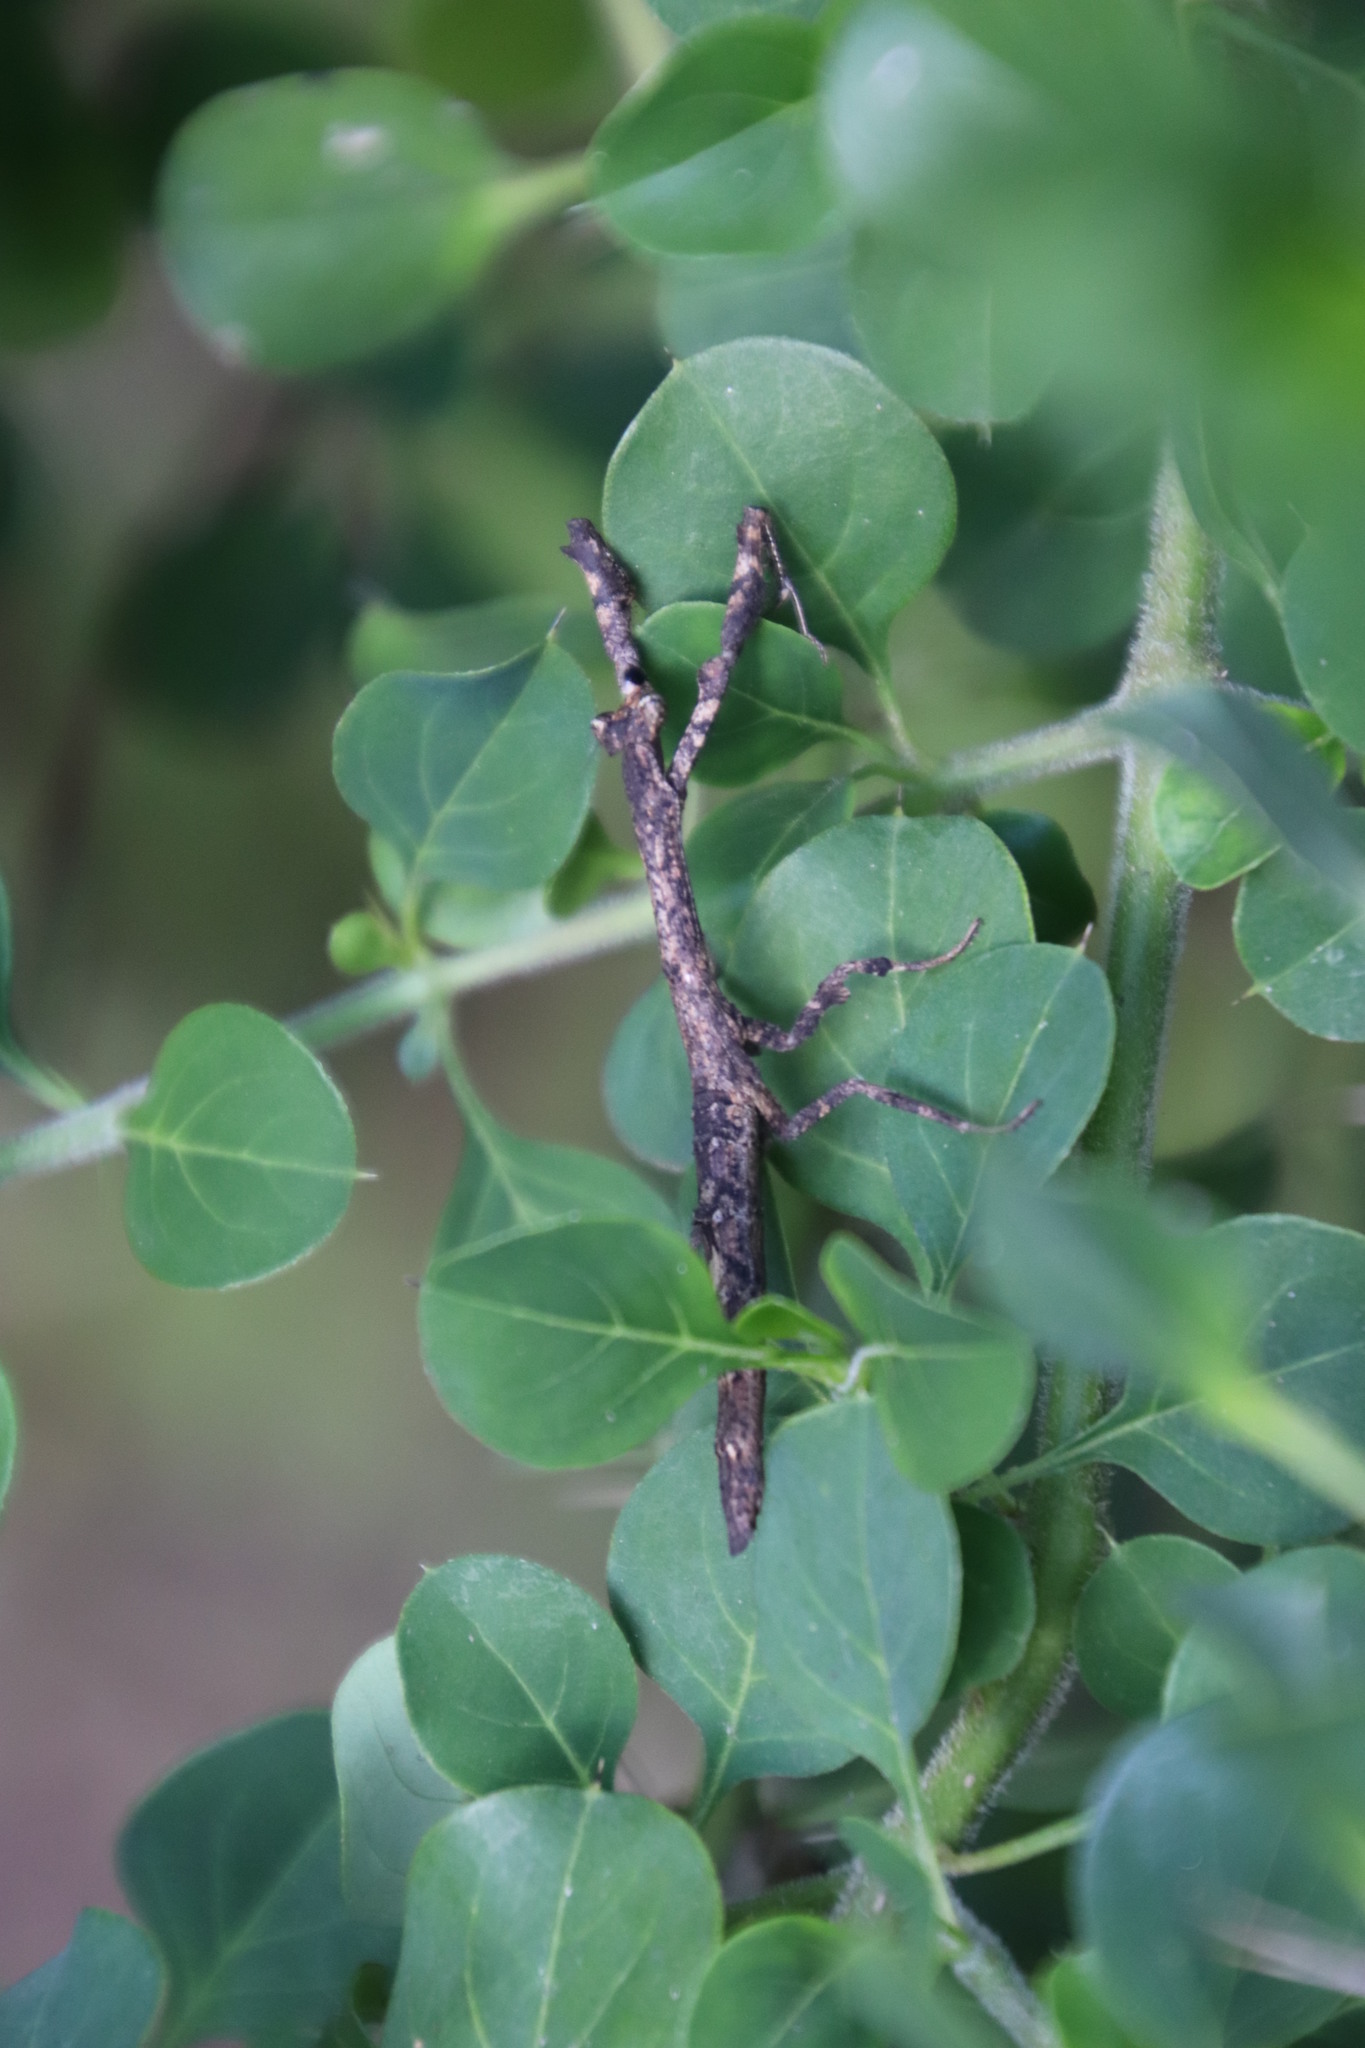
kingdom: Animalia
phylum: Arthropoda
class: Insecta
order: Mantodea
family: Deroplatyidae
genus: Popa
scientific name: Popa spurca
